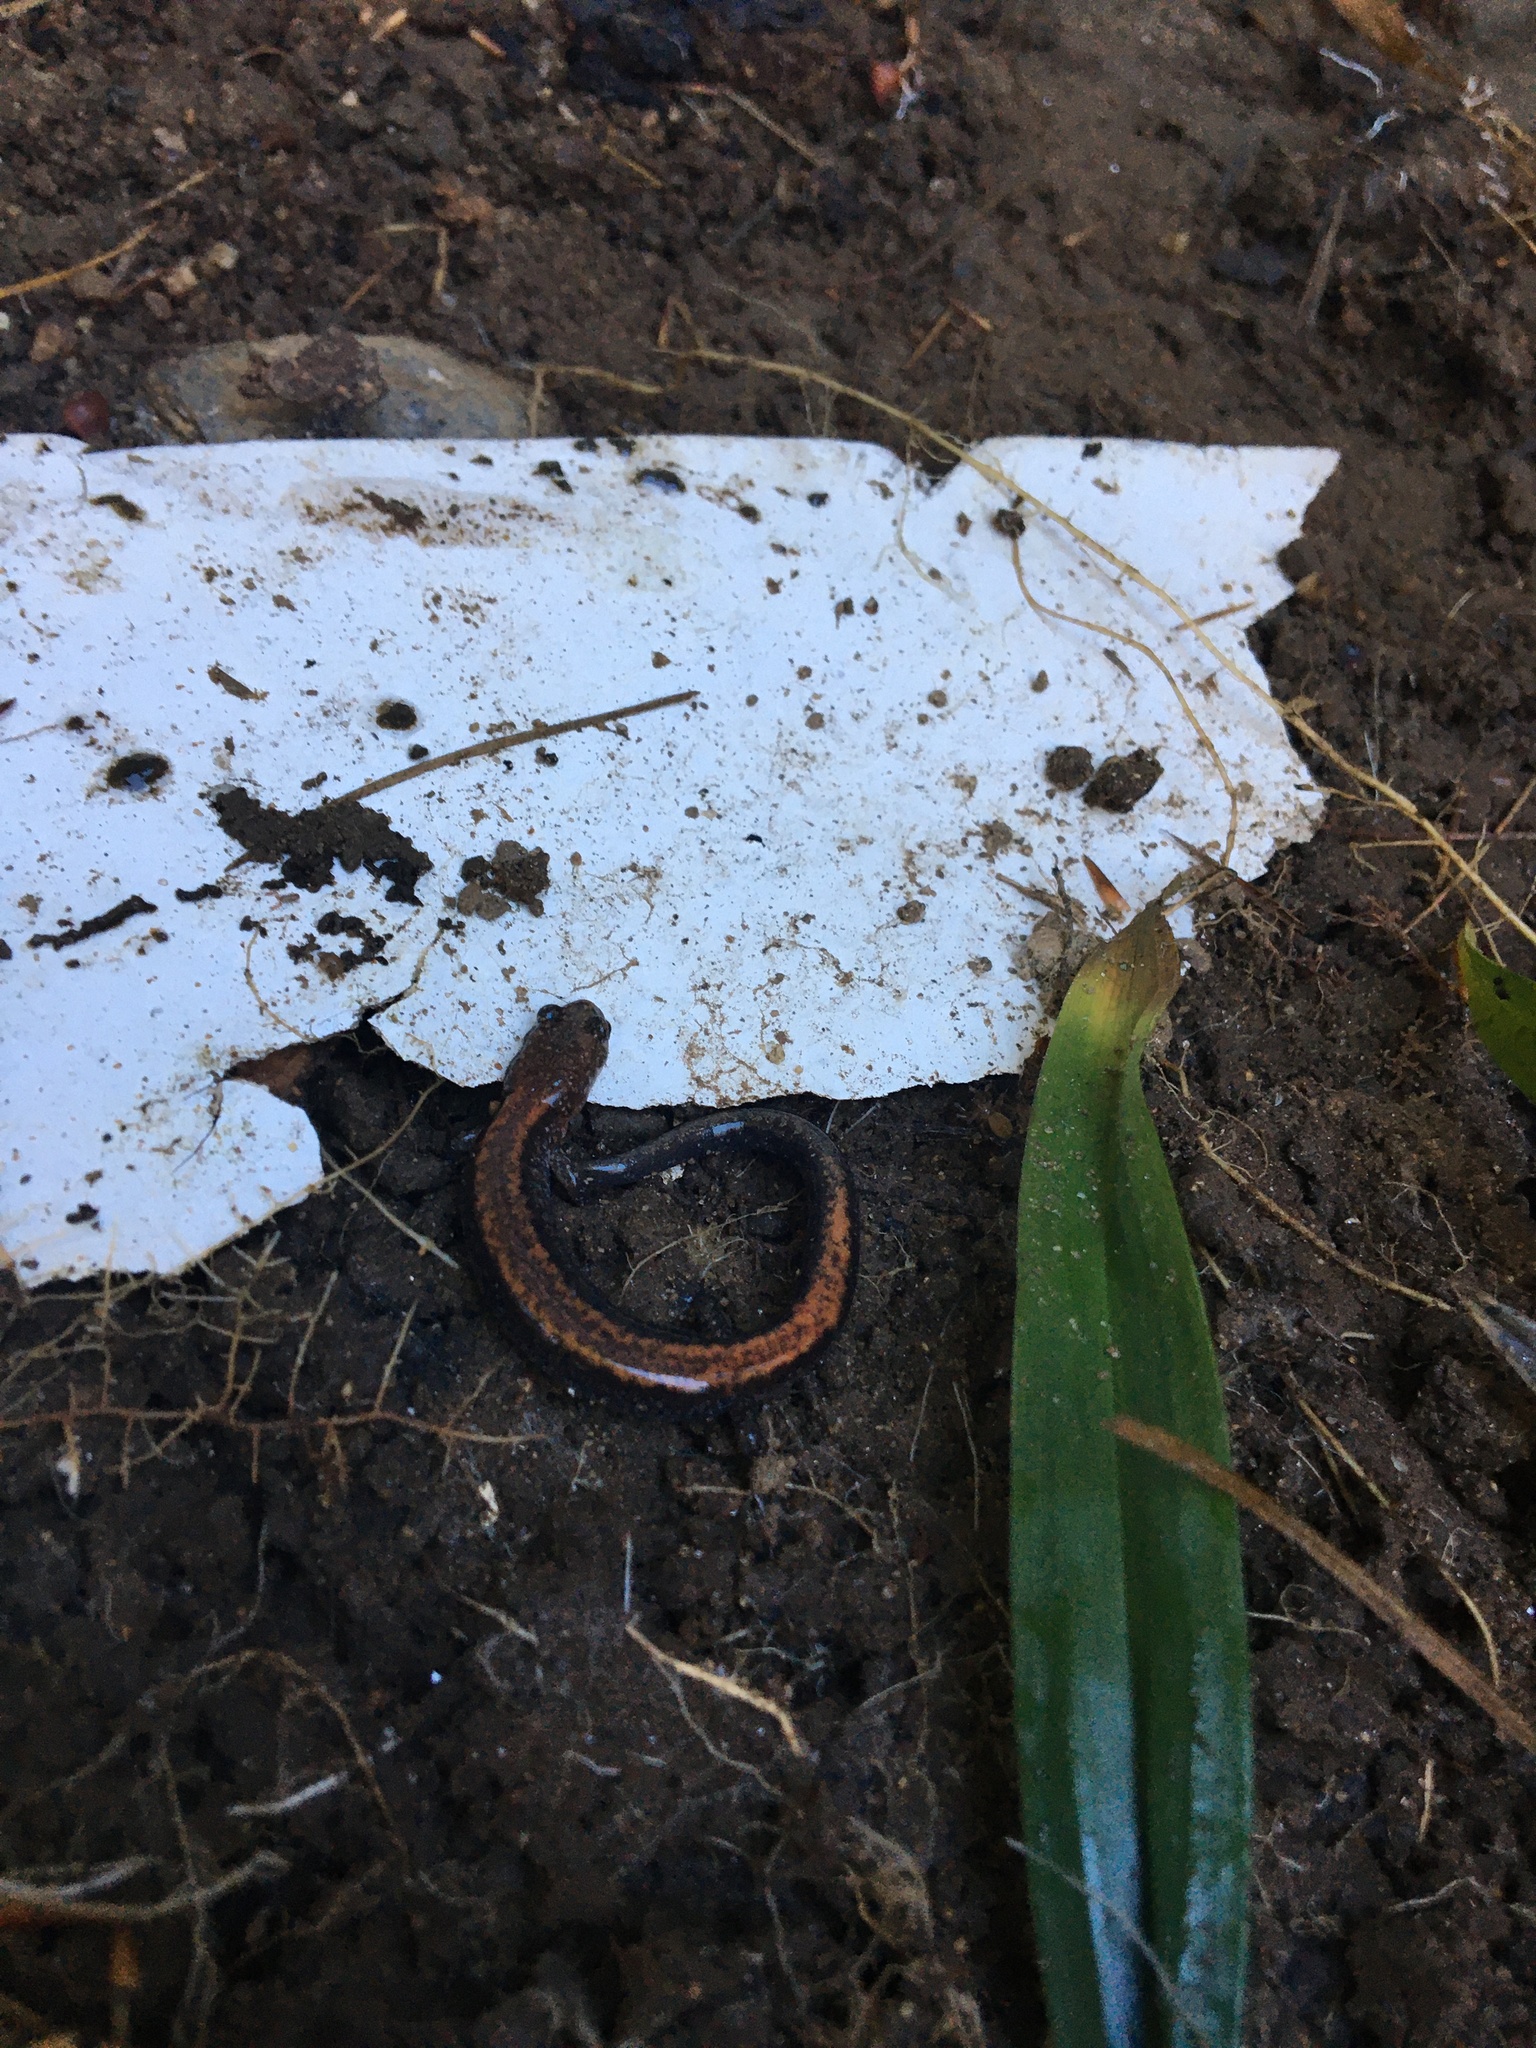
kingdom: Animalia
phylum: Chordata
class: Amphibia
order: Caudata
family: Plethodontidae
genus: Plethodon
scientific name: Plethodon cinereus
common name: Redback salamander
